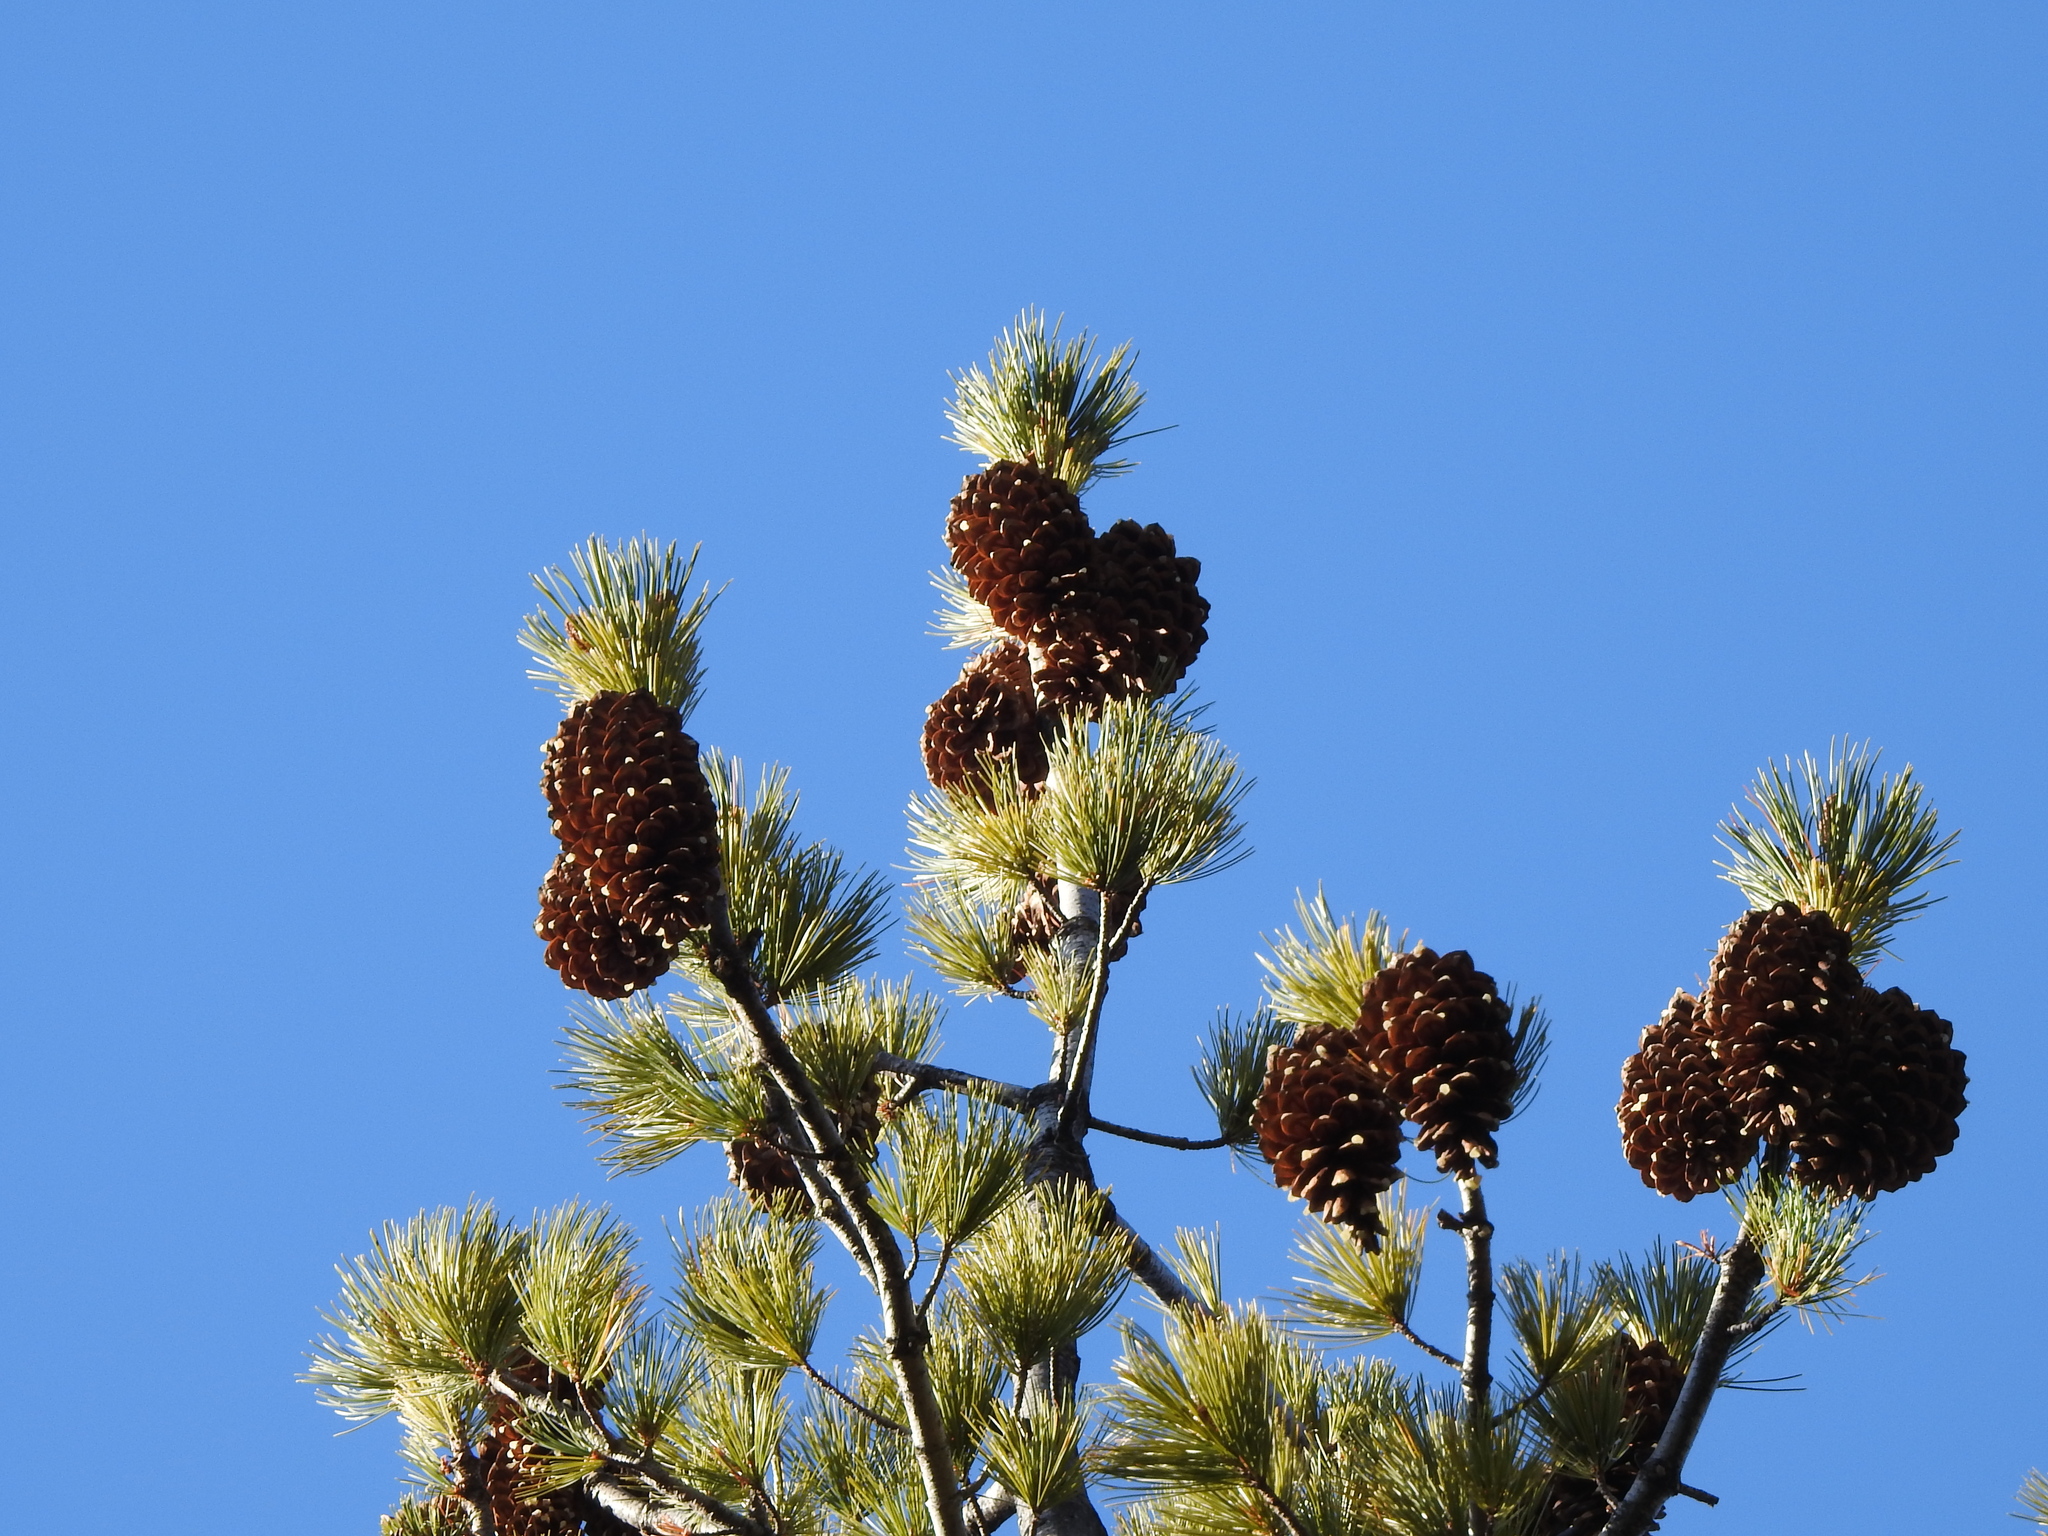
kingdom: Plantae
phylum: Tracheophyta
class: Pinopsida
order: Pinales
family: Pinaceae
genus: Pinus
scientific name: Pinus monticola
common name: Western white pine
